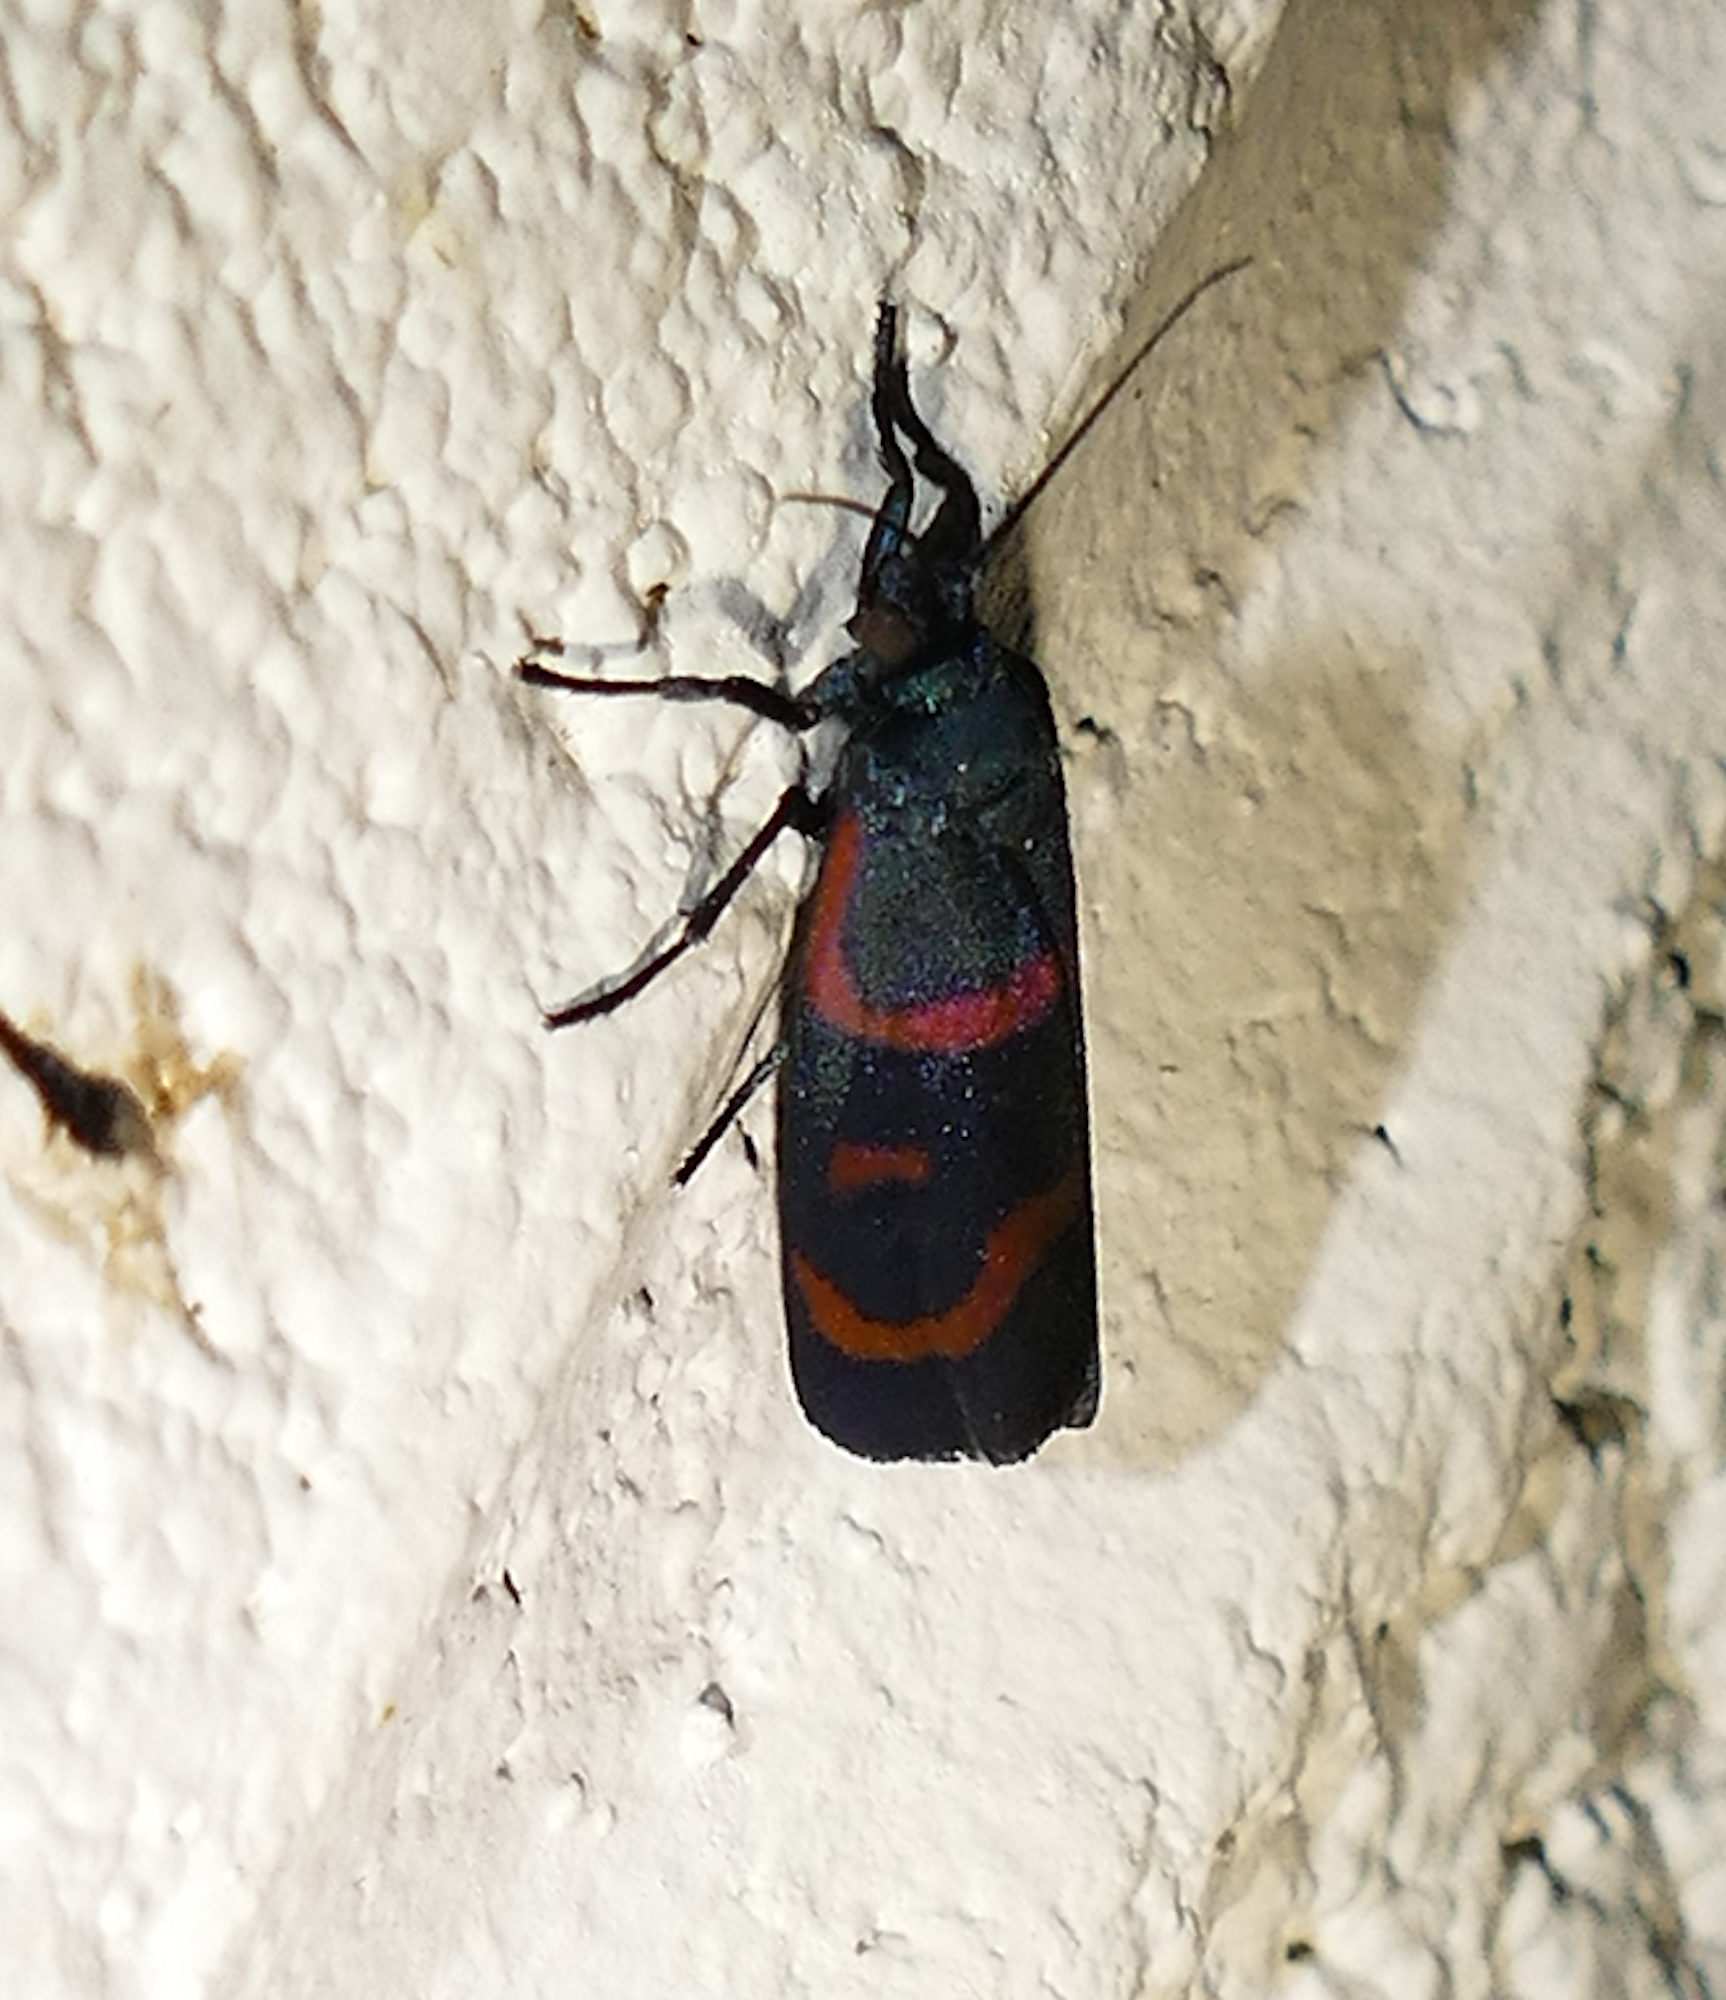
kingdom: Animalia
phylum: Arthropoda
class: Insecta
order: Lepidoptera
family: Noctuidae
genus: Cydosia
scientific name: Cydosia aurivitta
